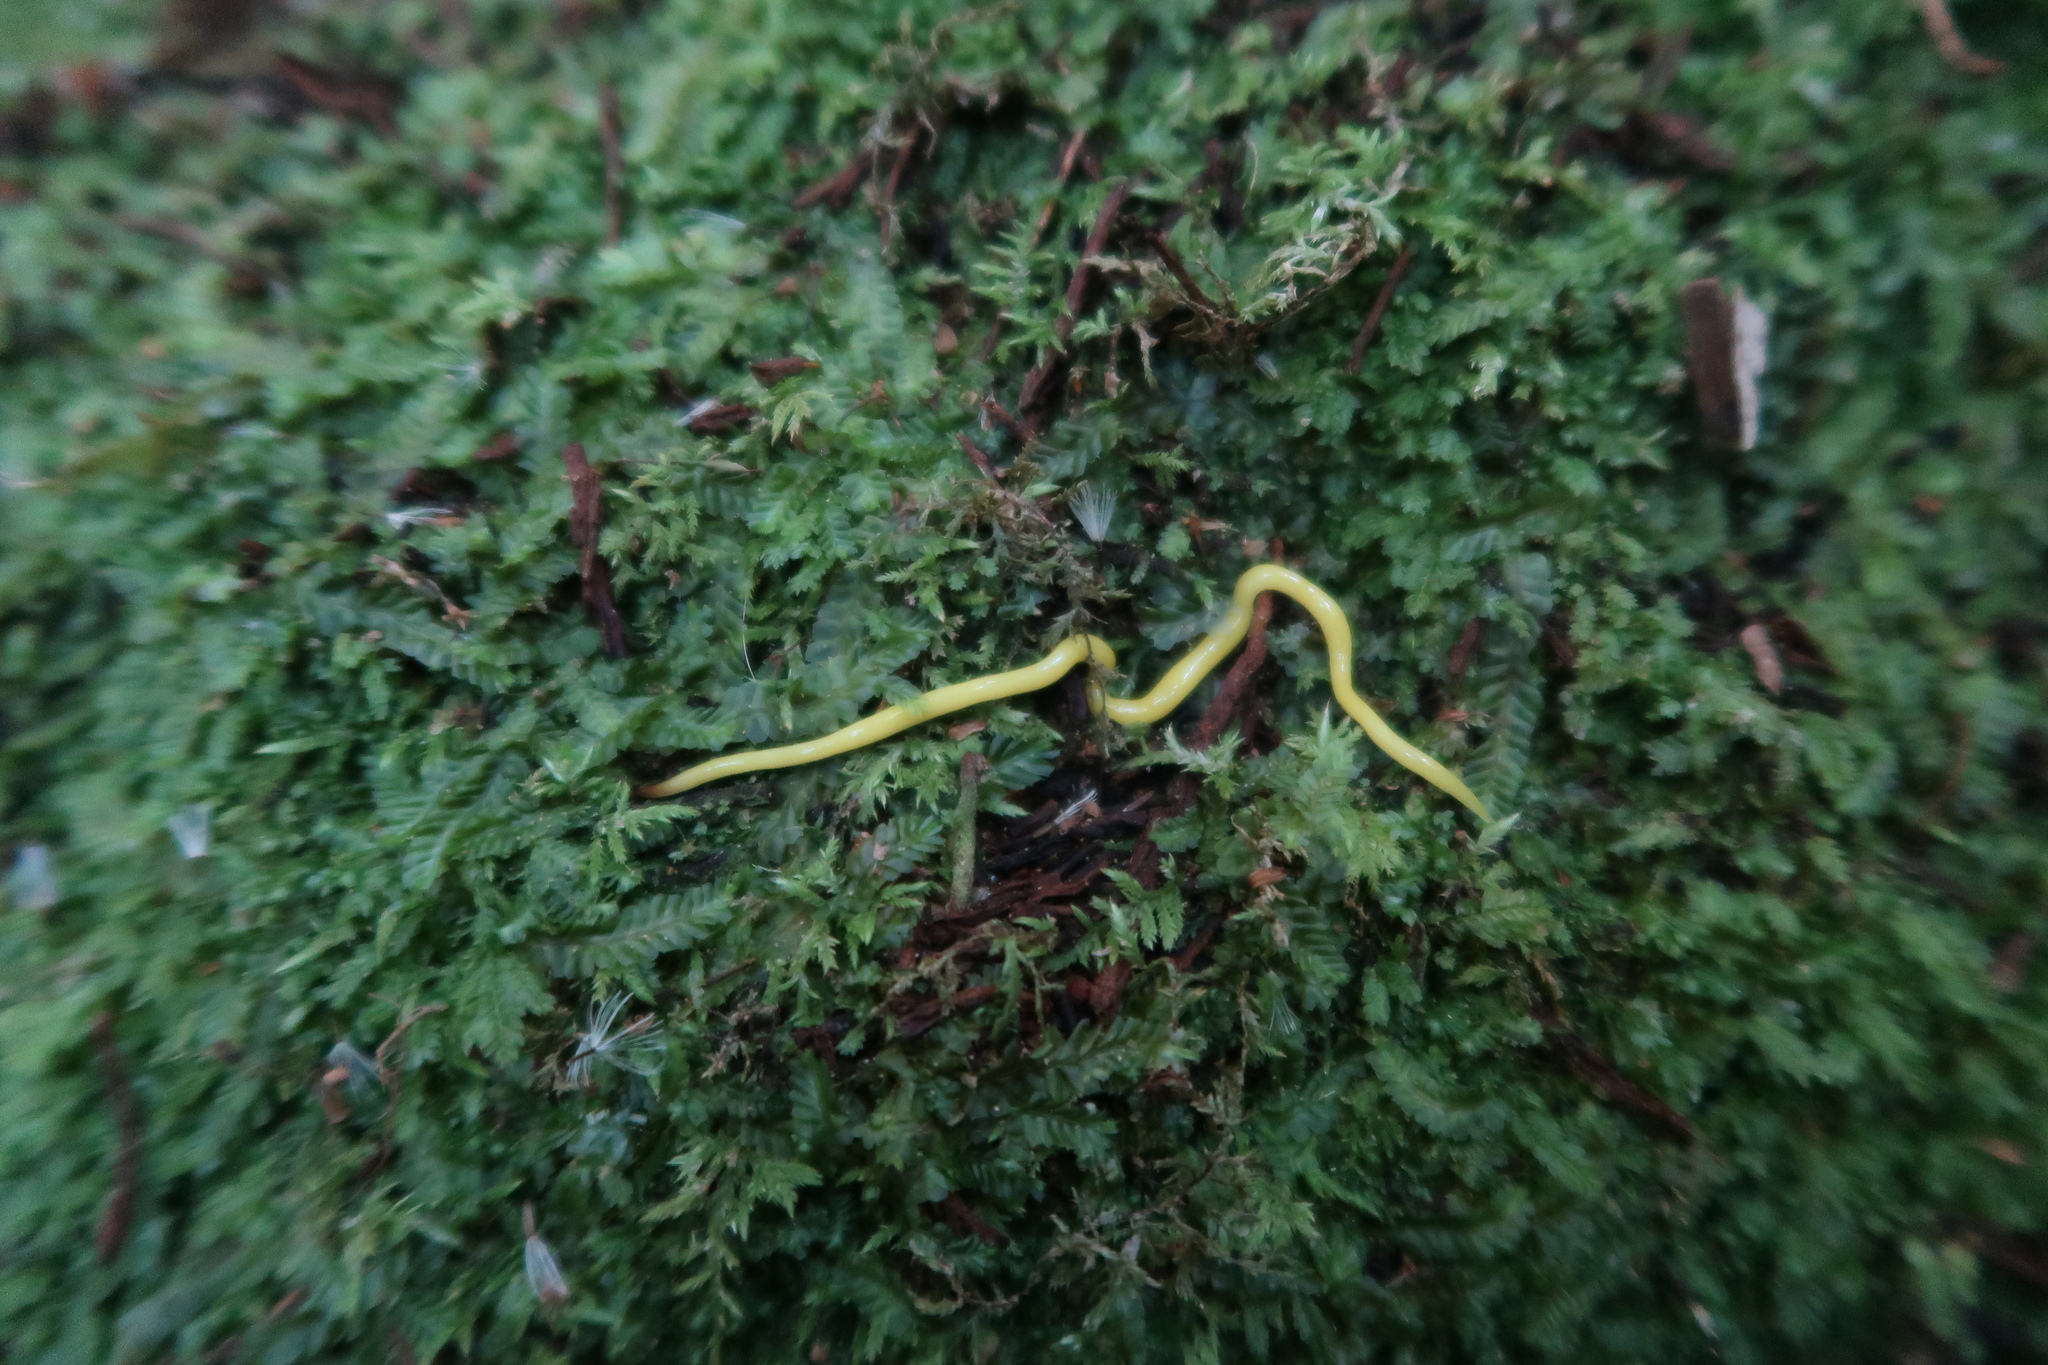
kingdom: Animalia
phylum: Platyhelminthes
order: Tricladida
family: Geoplanidae
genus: Fletchamia
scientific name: Fletchamia sugdeni
